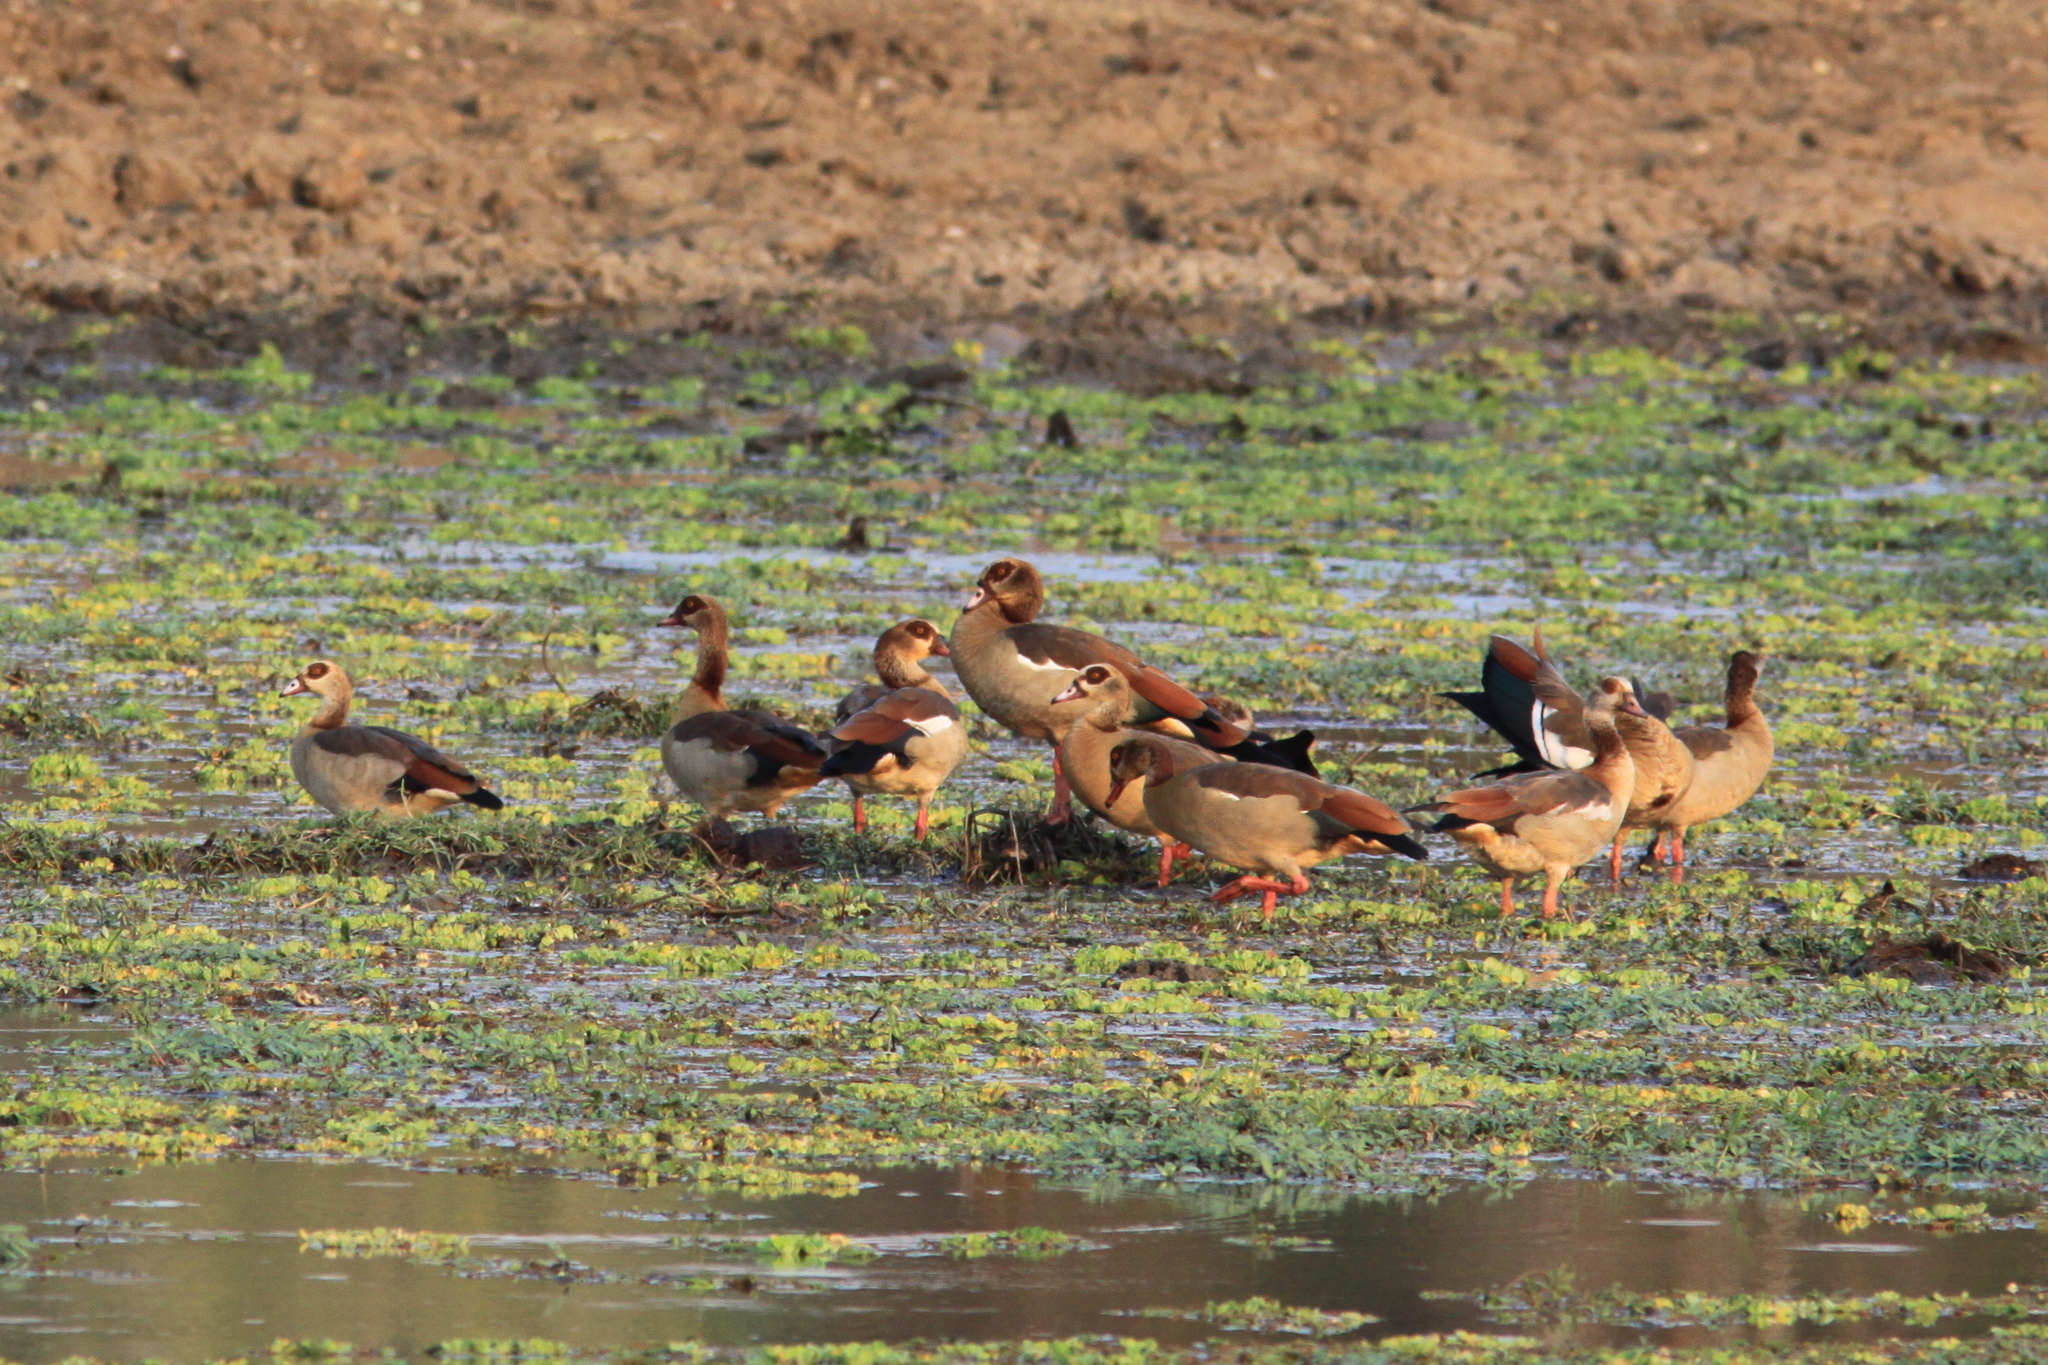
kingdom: Animalia
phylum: Chordata
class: Aves
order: Anseriformes
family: Anatidae
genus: Alopochen
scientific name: Alopochen aegyptiaca
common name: Egyptian goose
